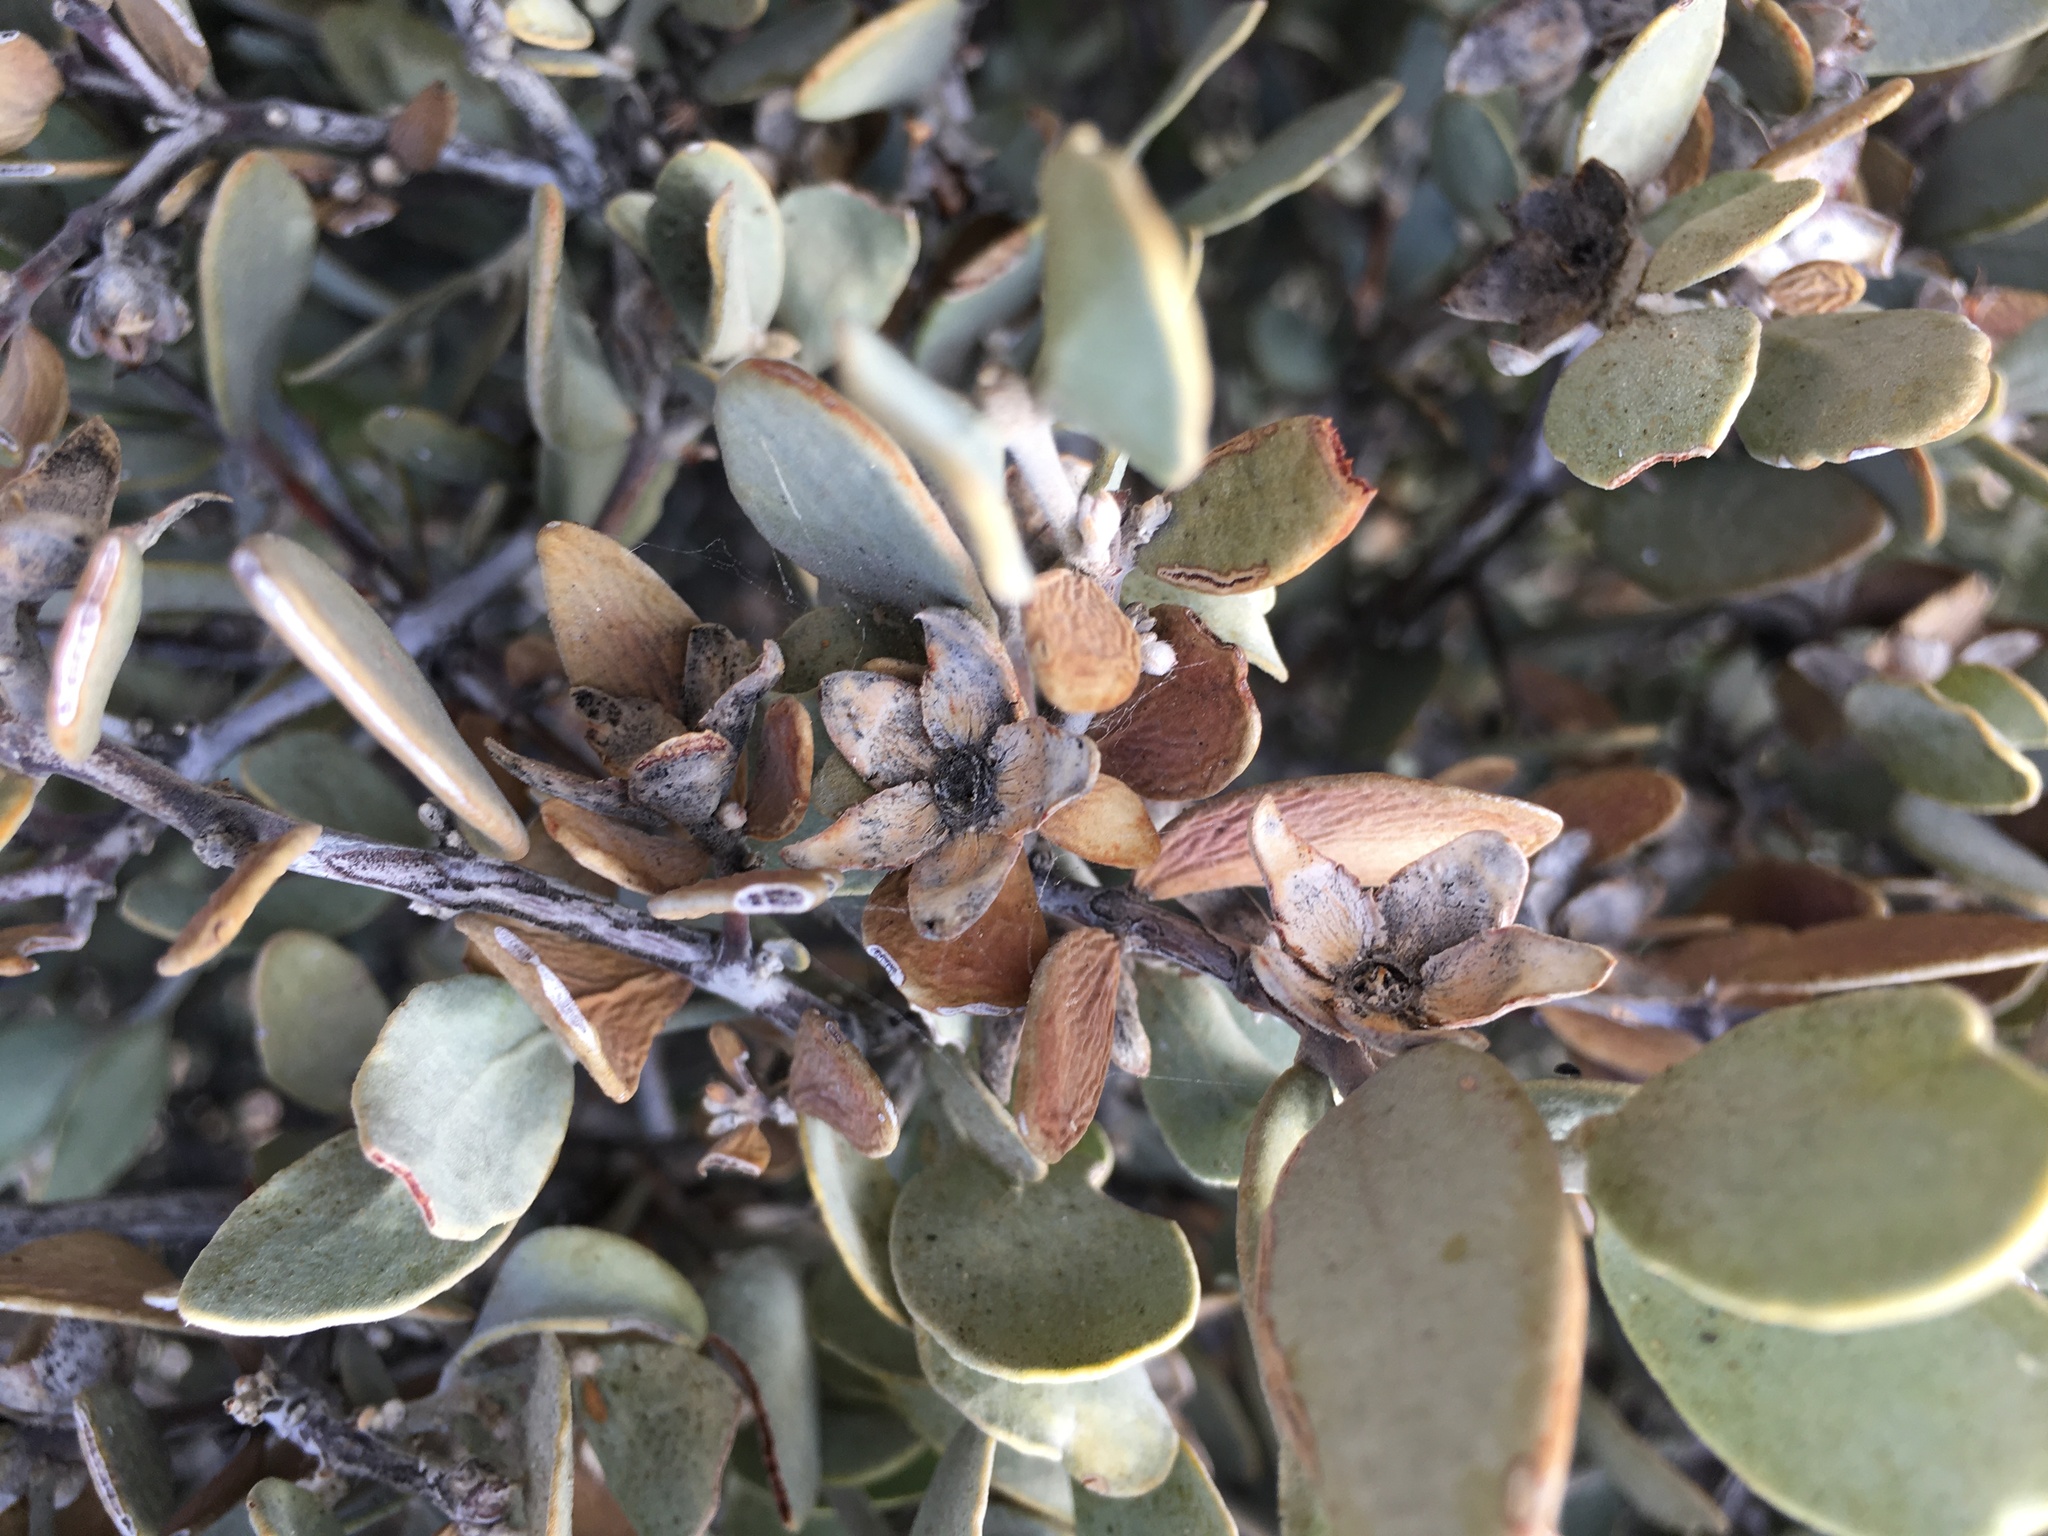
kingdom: Plantae
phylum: Tracheophyta
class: Magnoliopsida
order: Caryophyllales
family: Simmondsiaceae
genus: Simmondsia
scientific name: Simmondsia chinensis
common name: Jojoba
